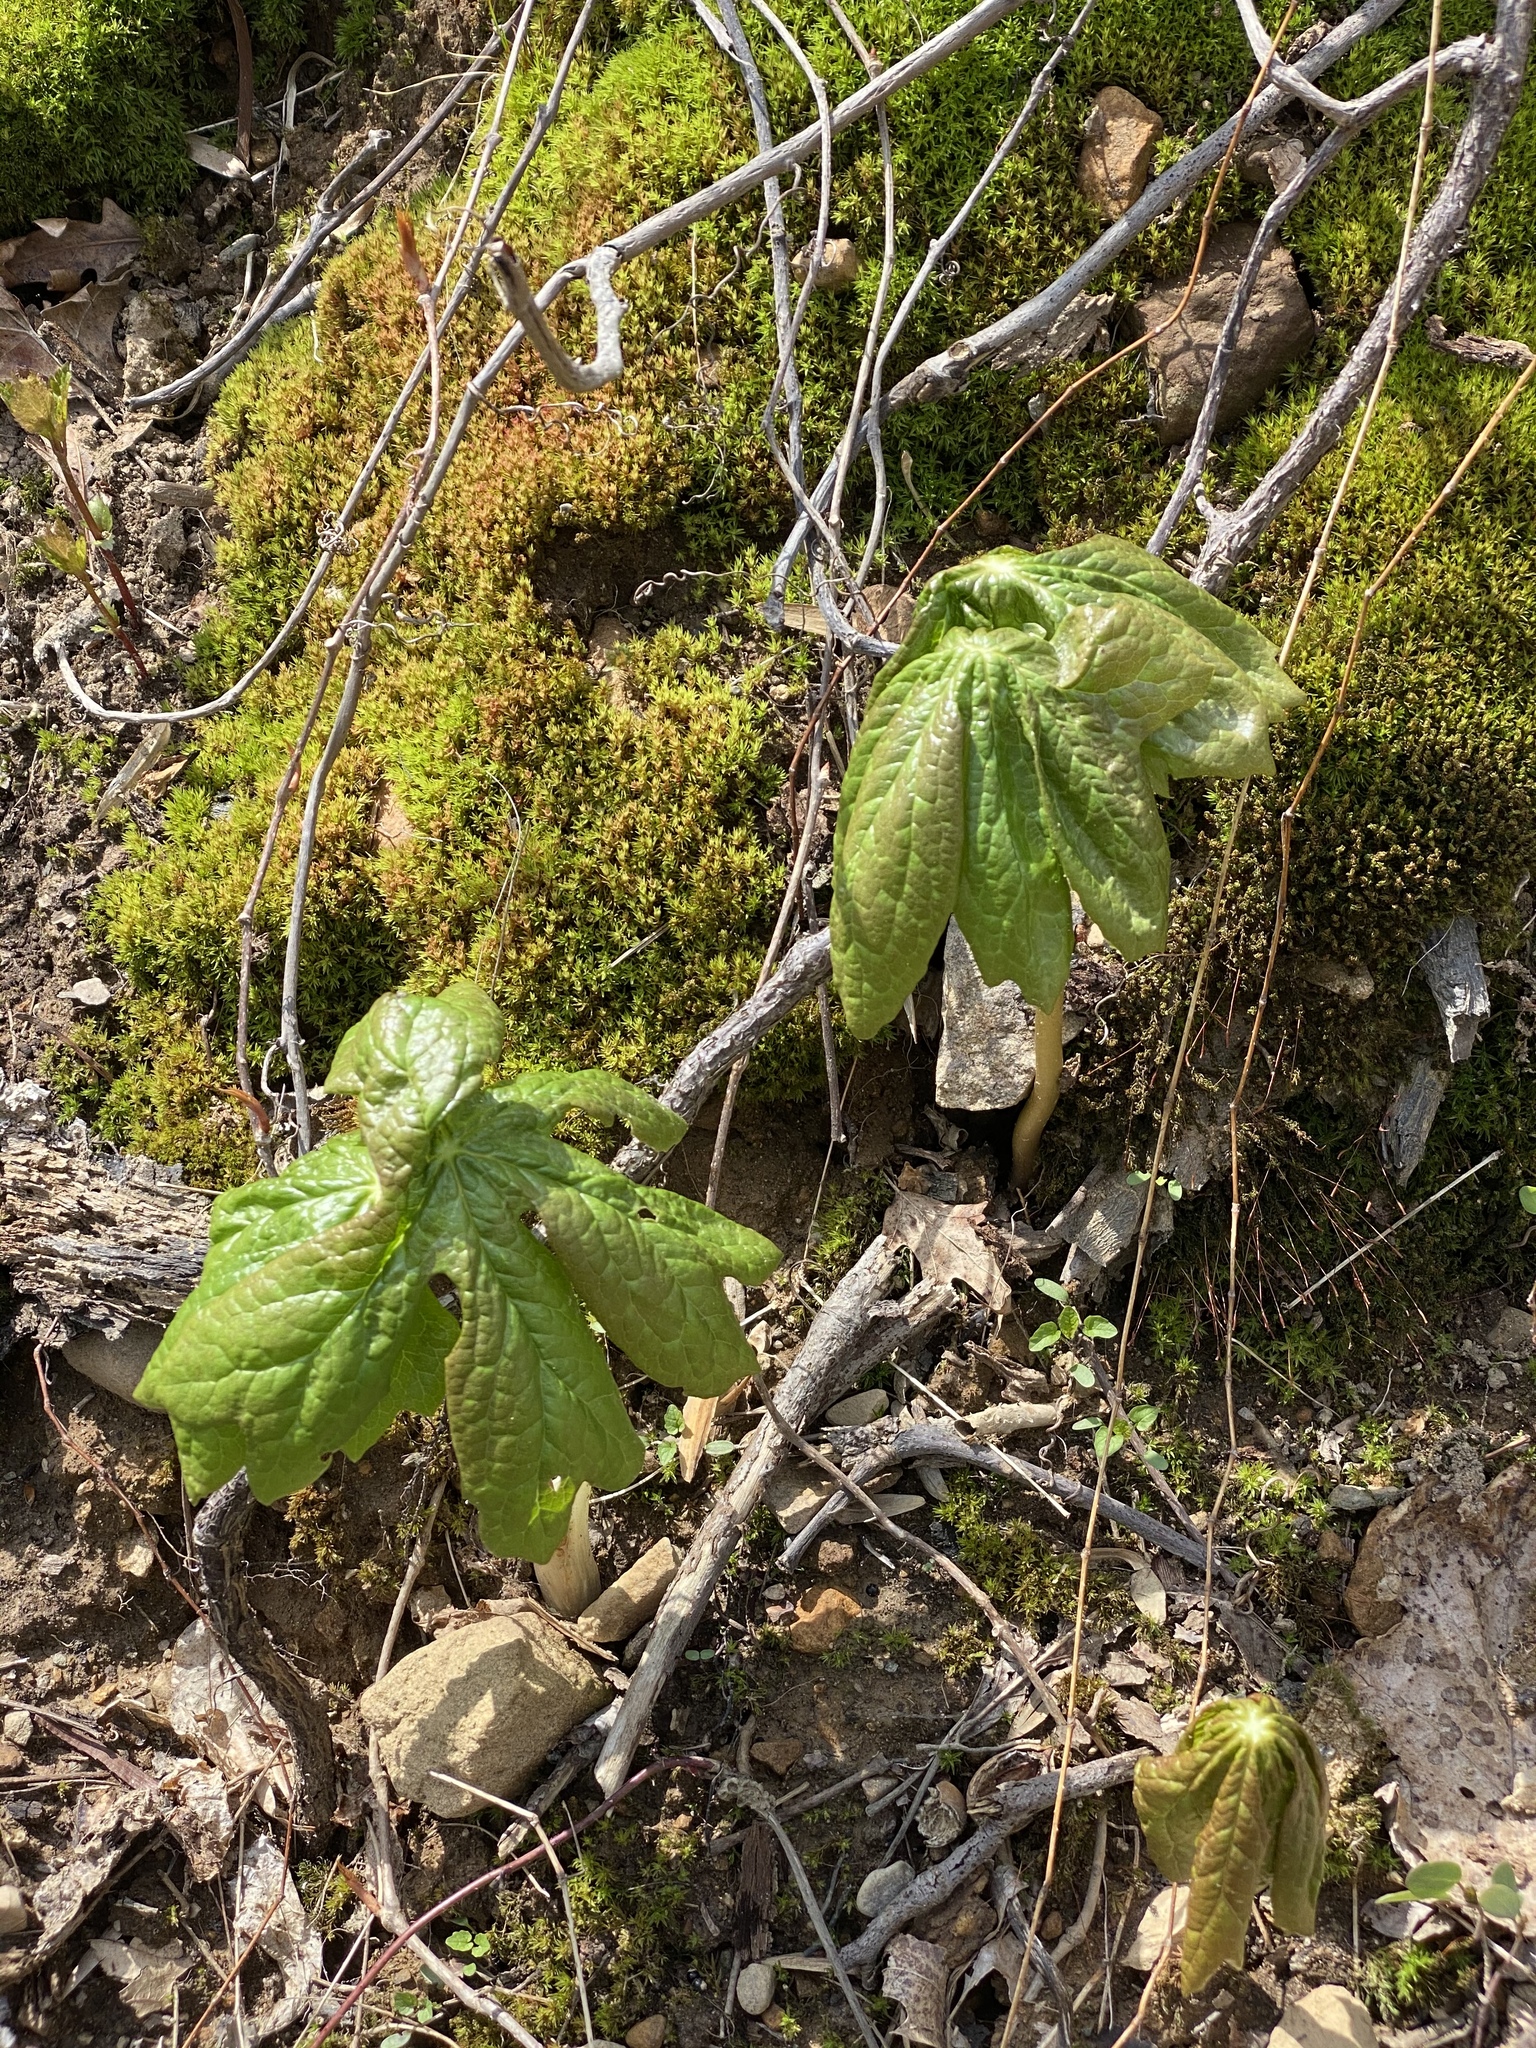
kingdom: Plantae
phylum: Tracheophyta
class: Magnoliopsida
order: Ranunculales
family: Berberidaceae
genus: Podophyllum
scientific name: Podophyllum peltatum
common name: Wild mandrake
